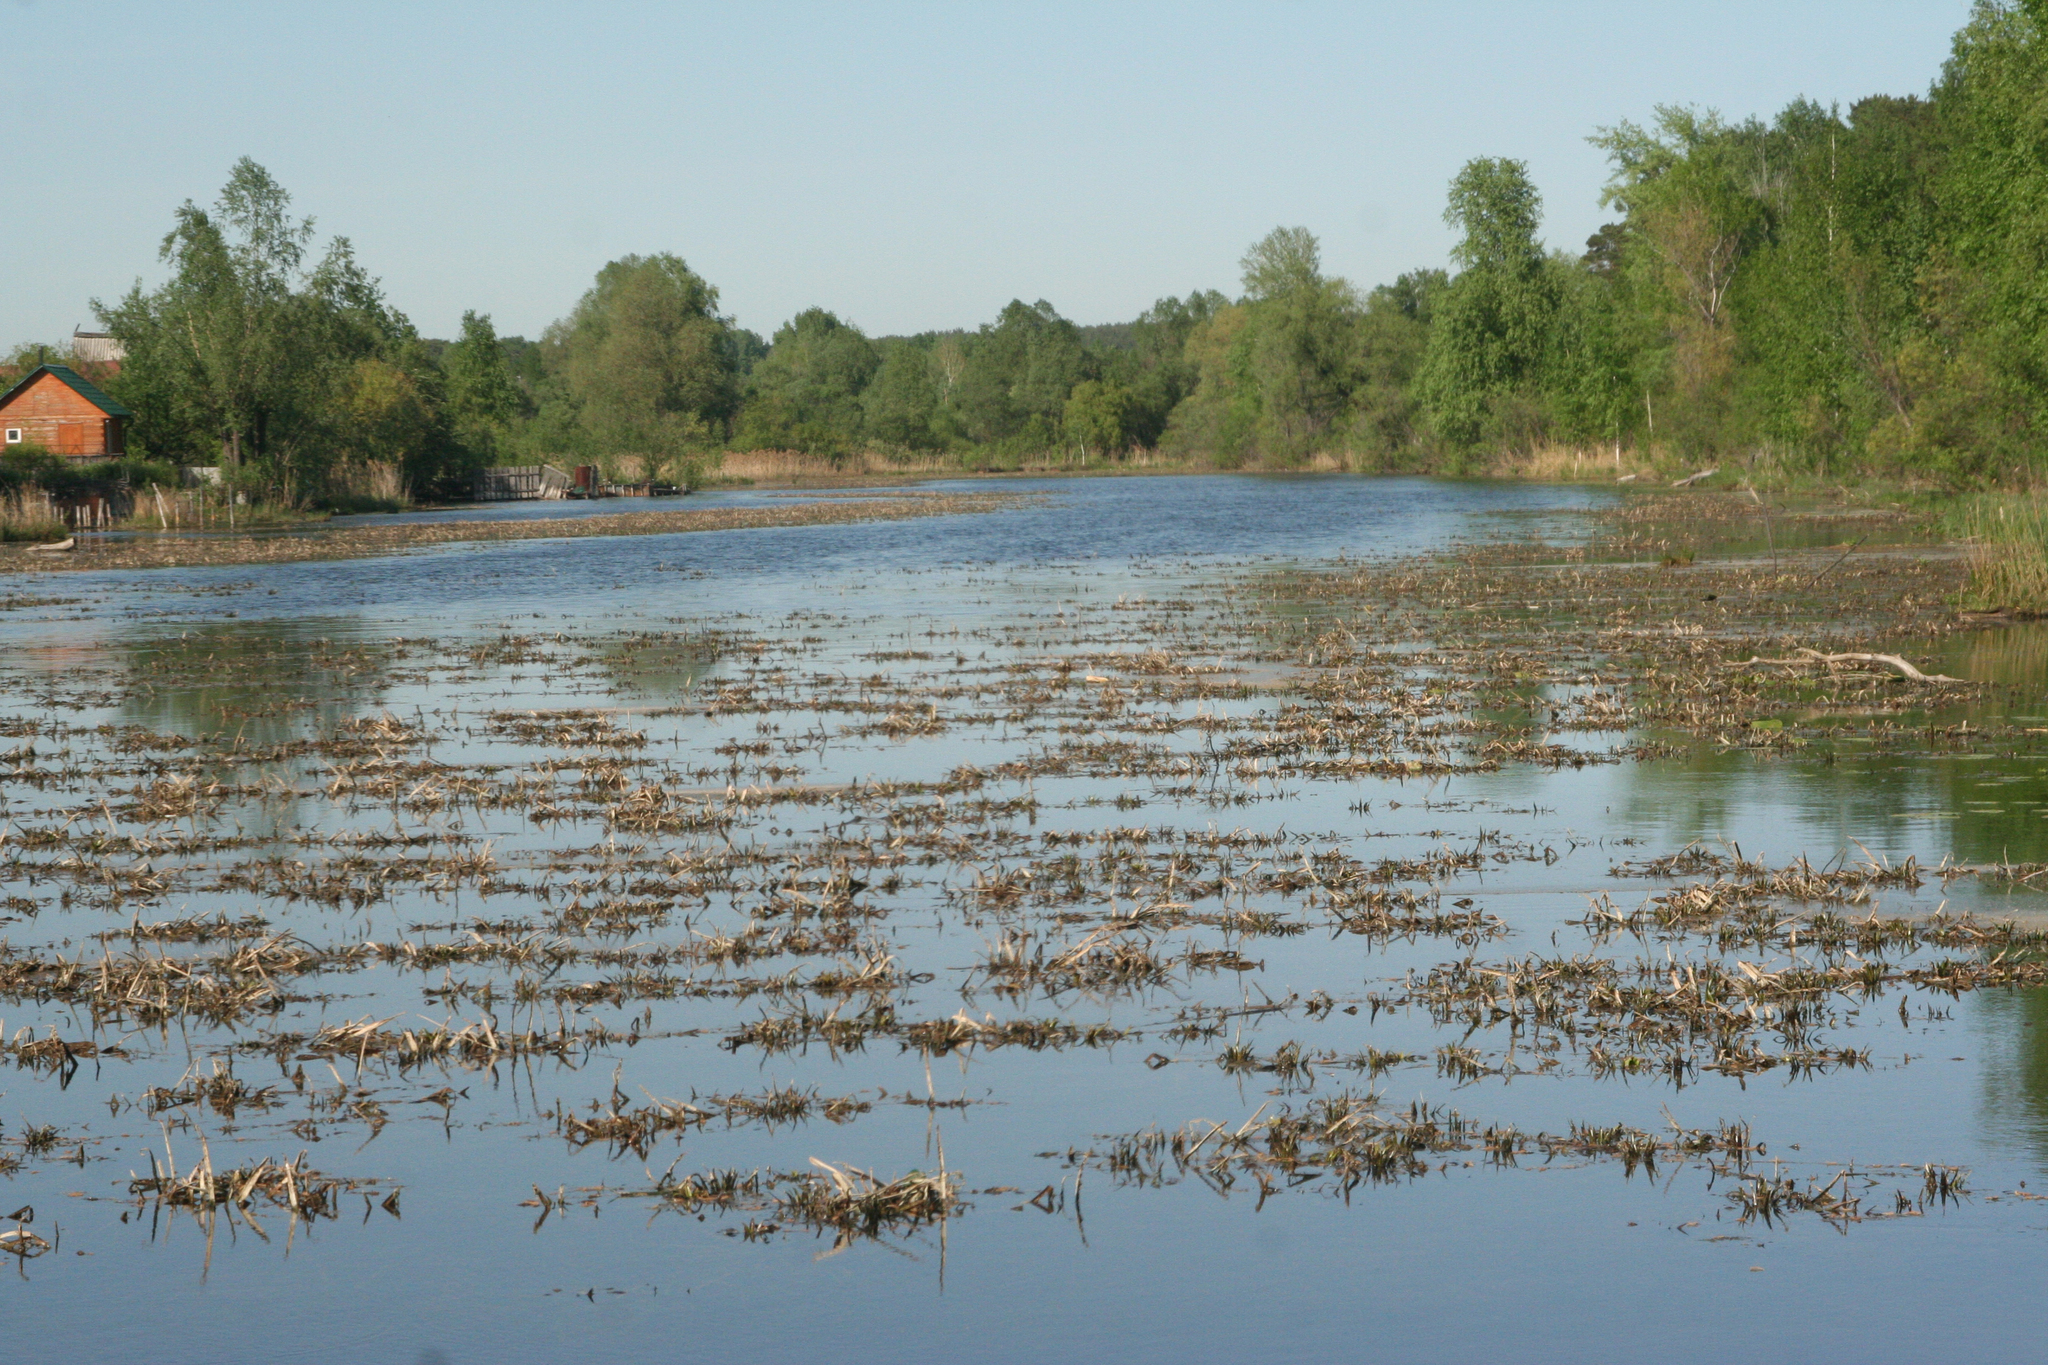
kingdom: Plantae
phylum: Tracheophyta
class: Liliopsida
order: Alismatales
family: Hydrocharitaceae
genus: Stratiotes
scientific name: Stratiotes aloides
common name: Water-soldier
